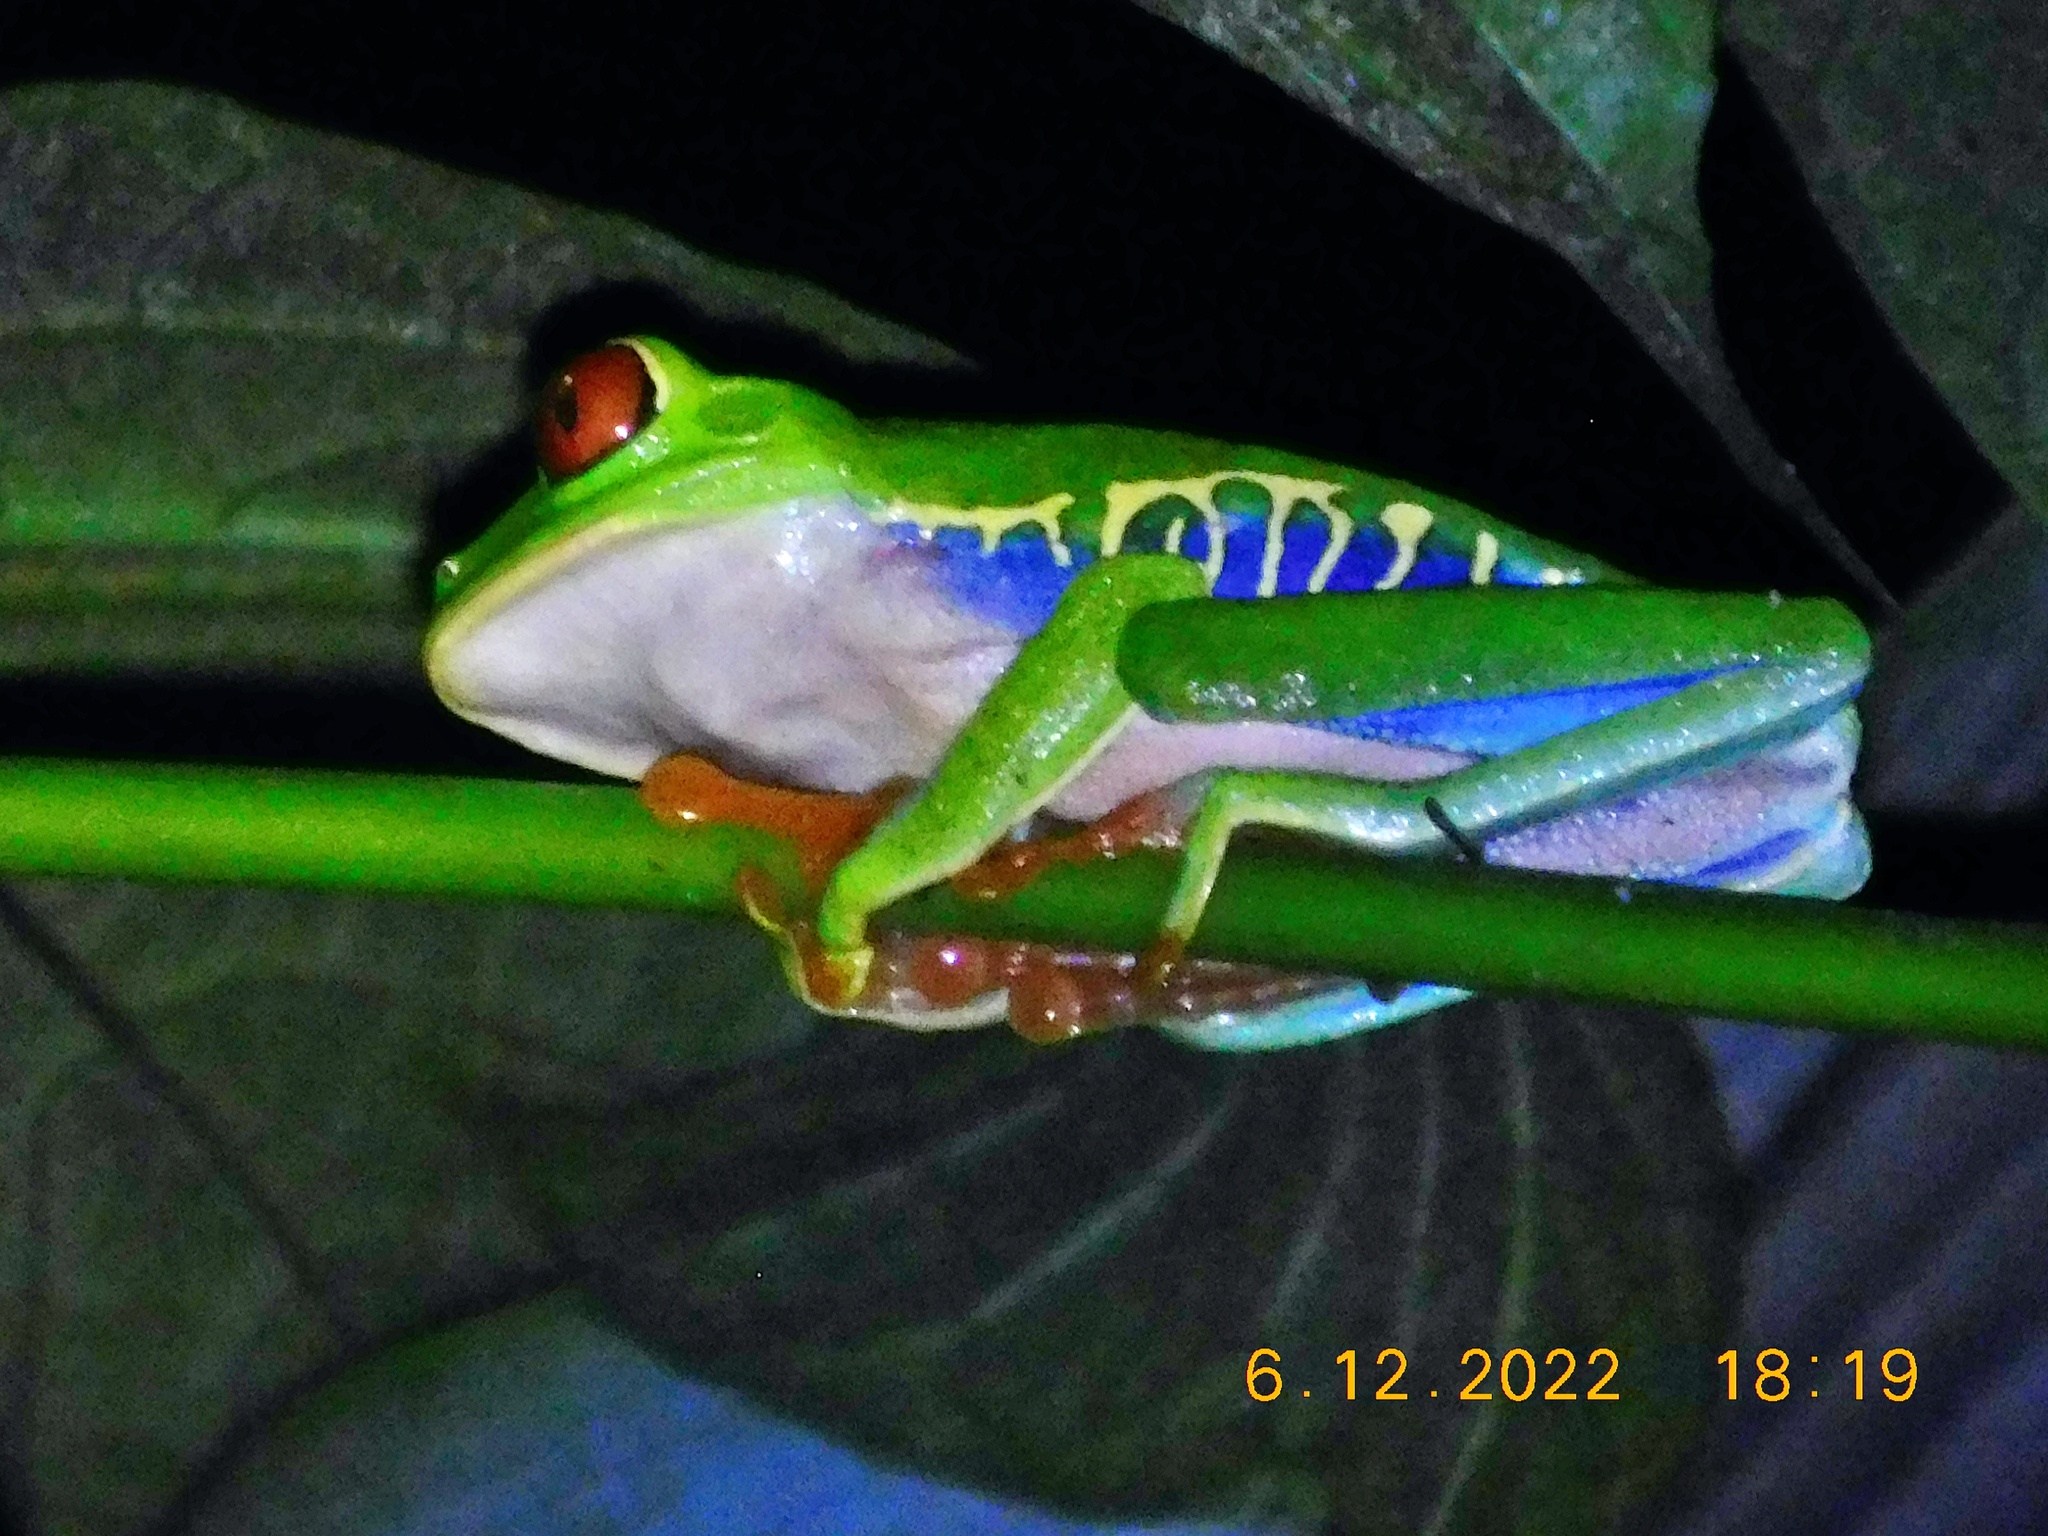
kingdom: Animalia
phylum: Chordata
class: Amphibia
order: Anura
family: Phyllomedusidae
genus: Agalychnis
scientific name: Agalychnis callidryas
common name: Red-eyed treefrog
